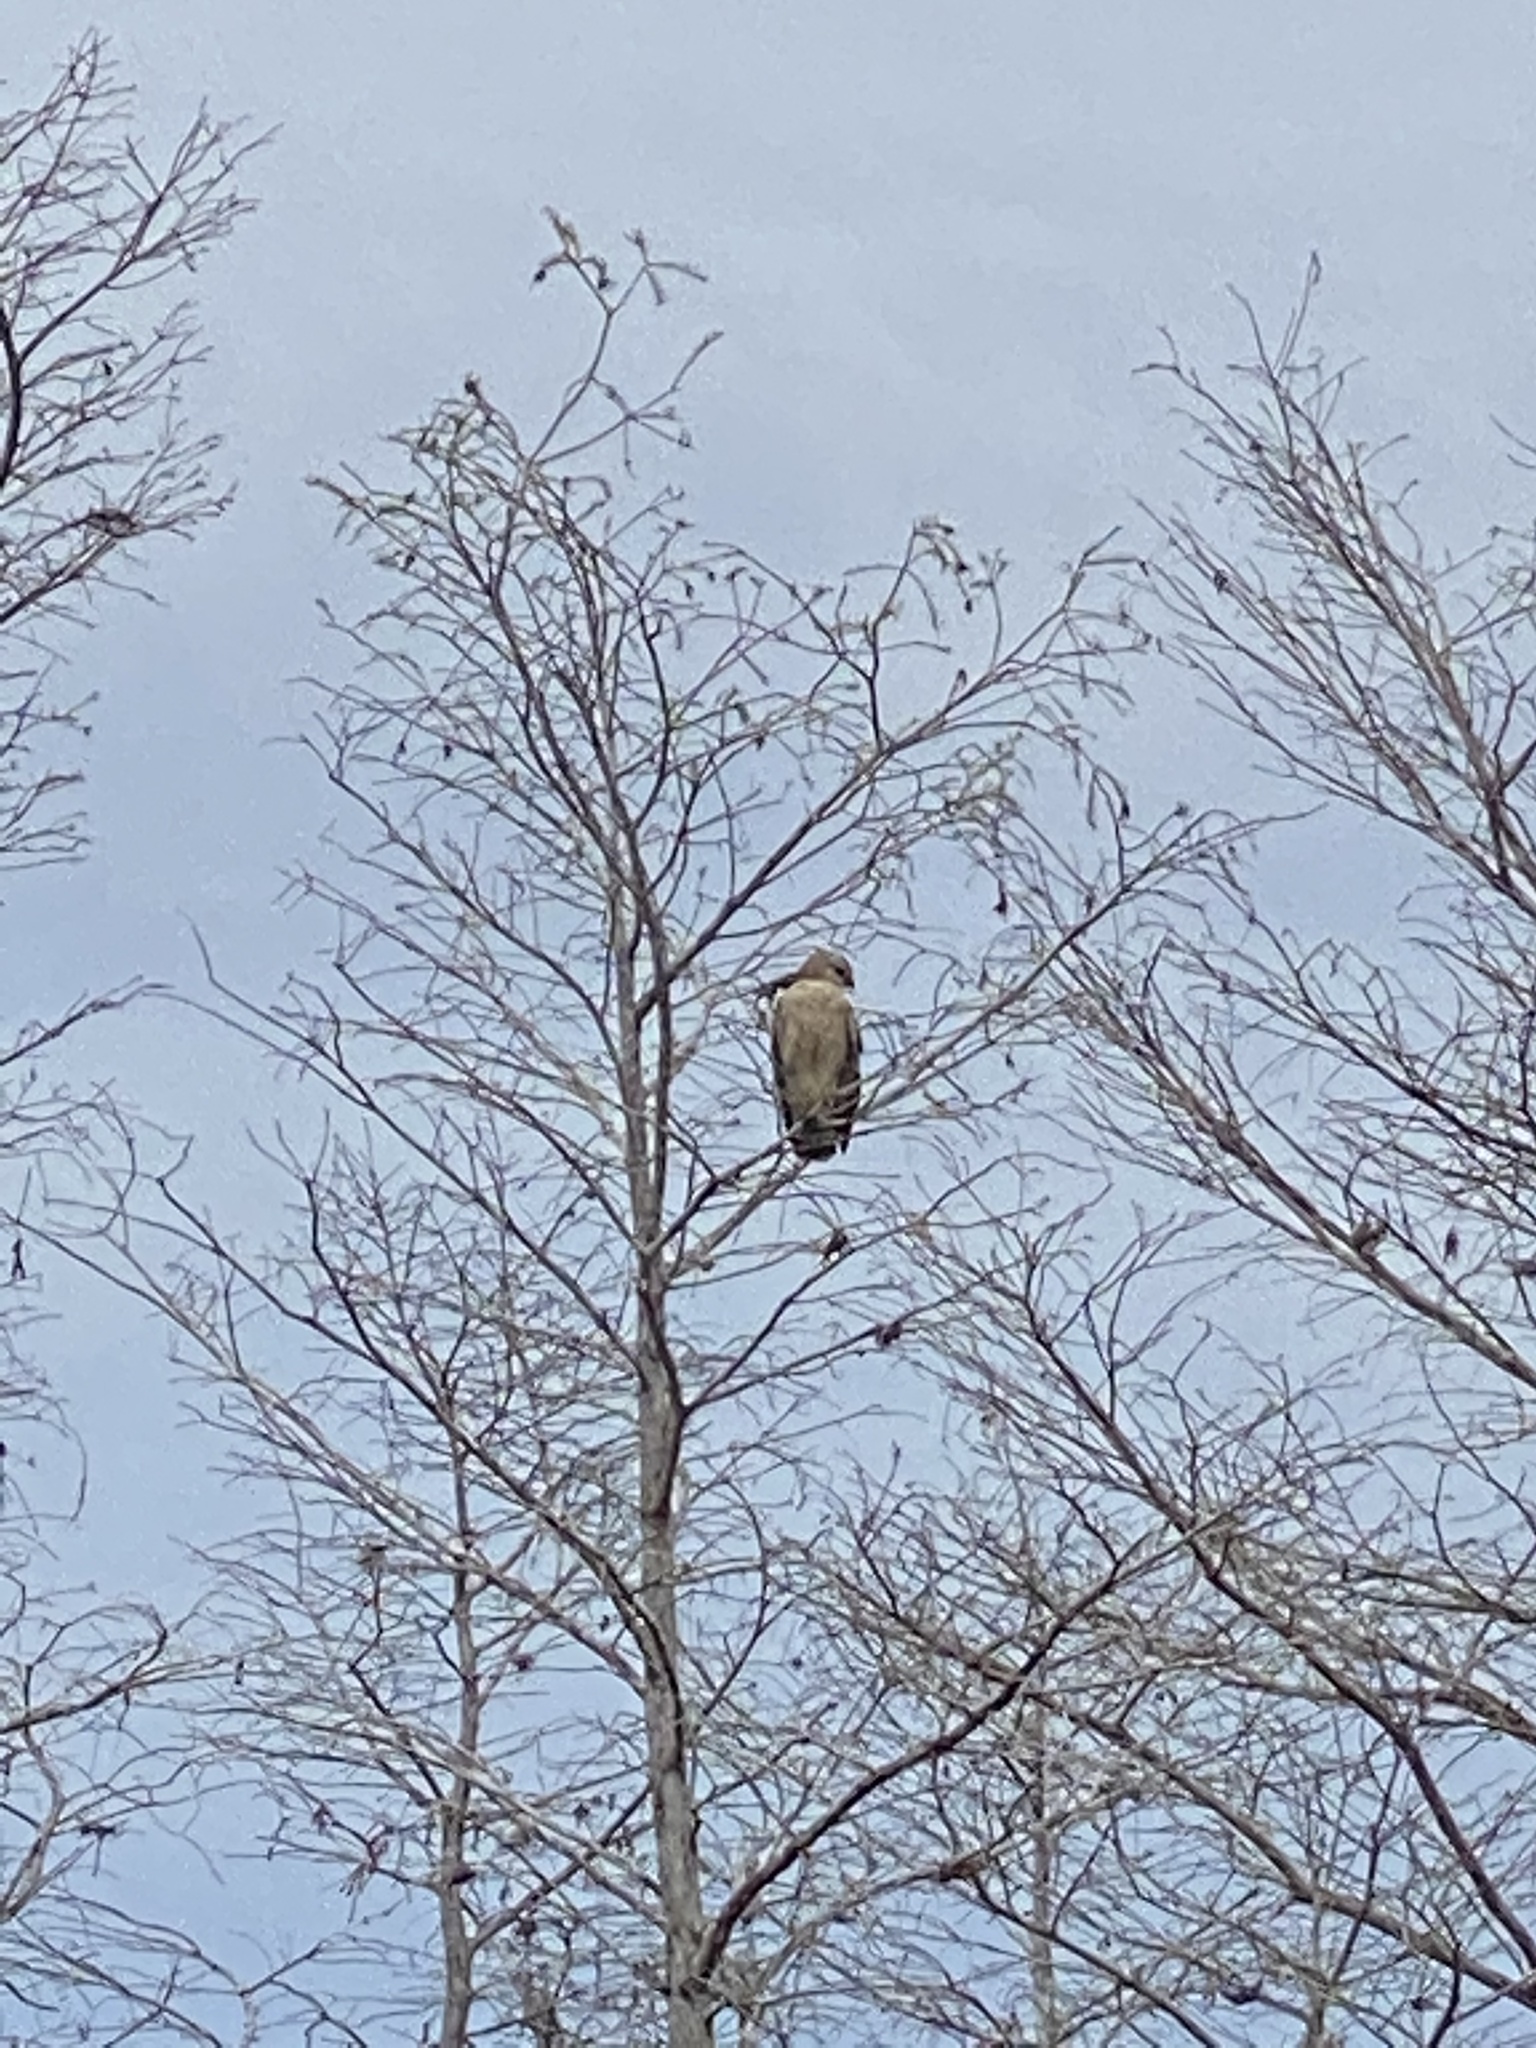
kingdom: Animalia
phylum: Chordata
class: Aves
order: Accipitriformes
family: Accipitridae
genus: Buteo
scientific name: Buteo lineatus
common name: Red-shouldered hawk
